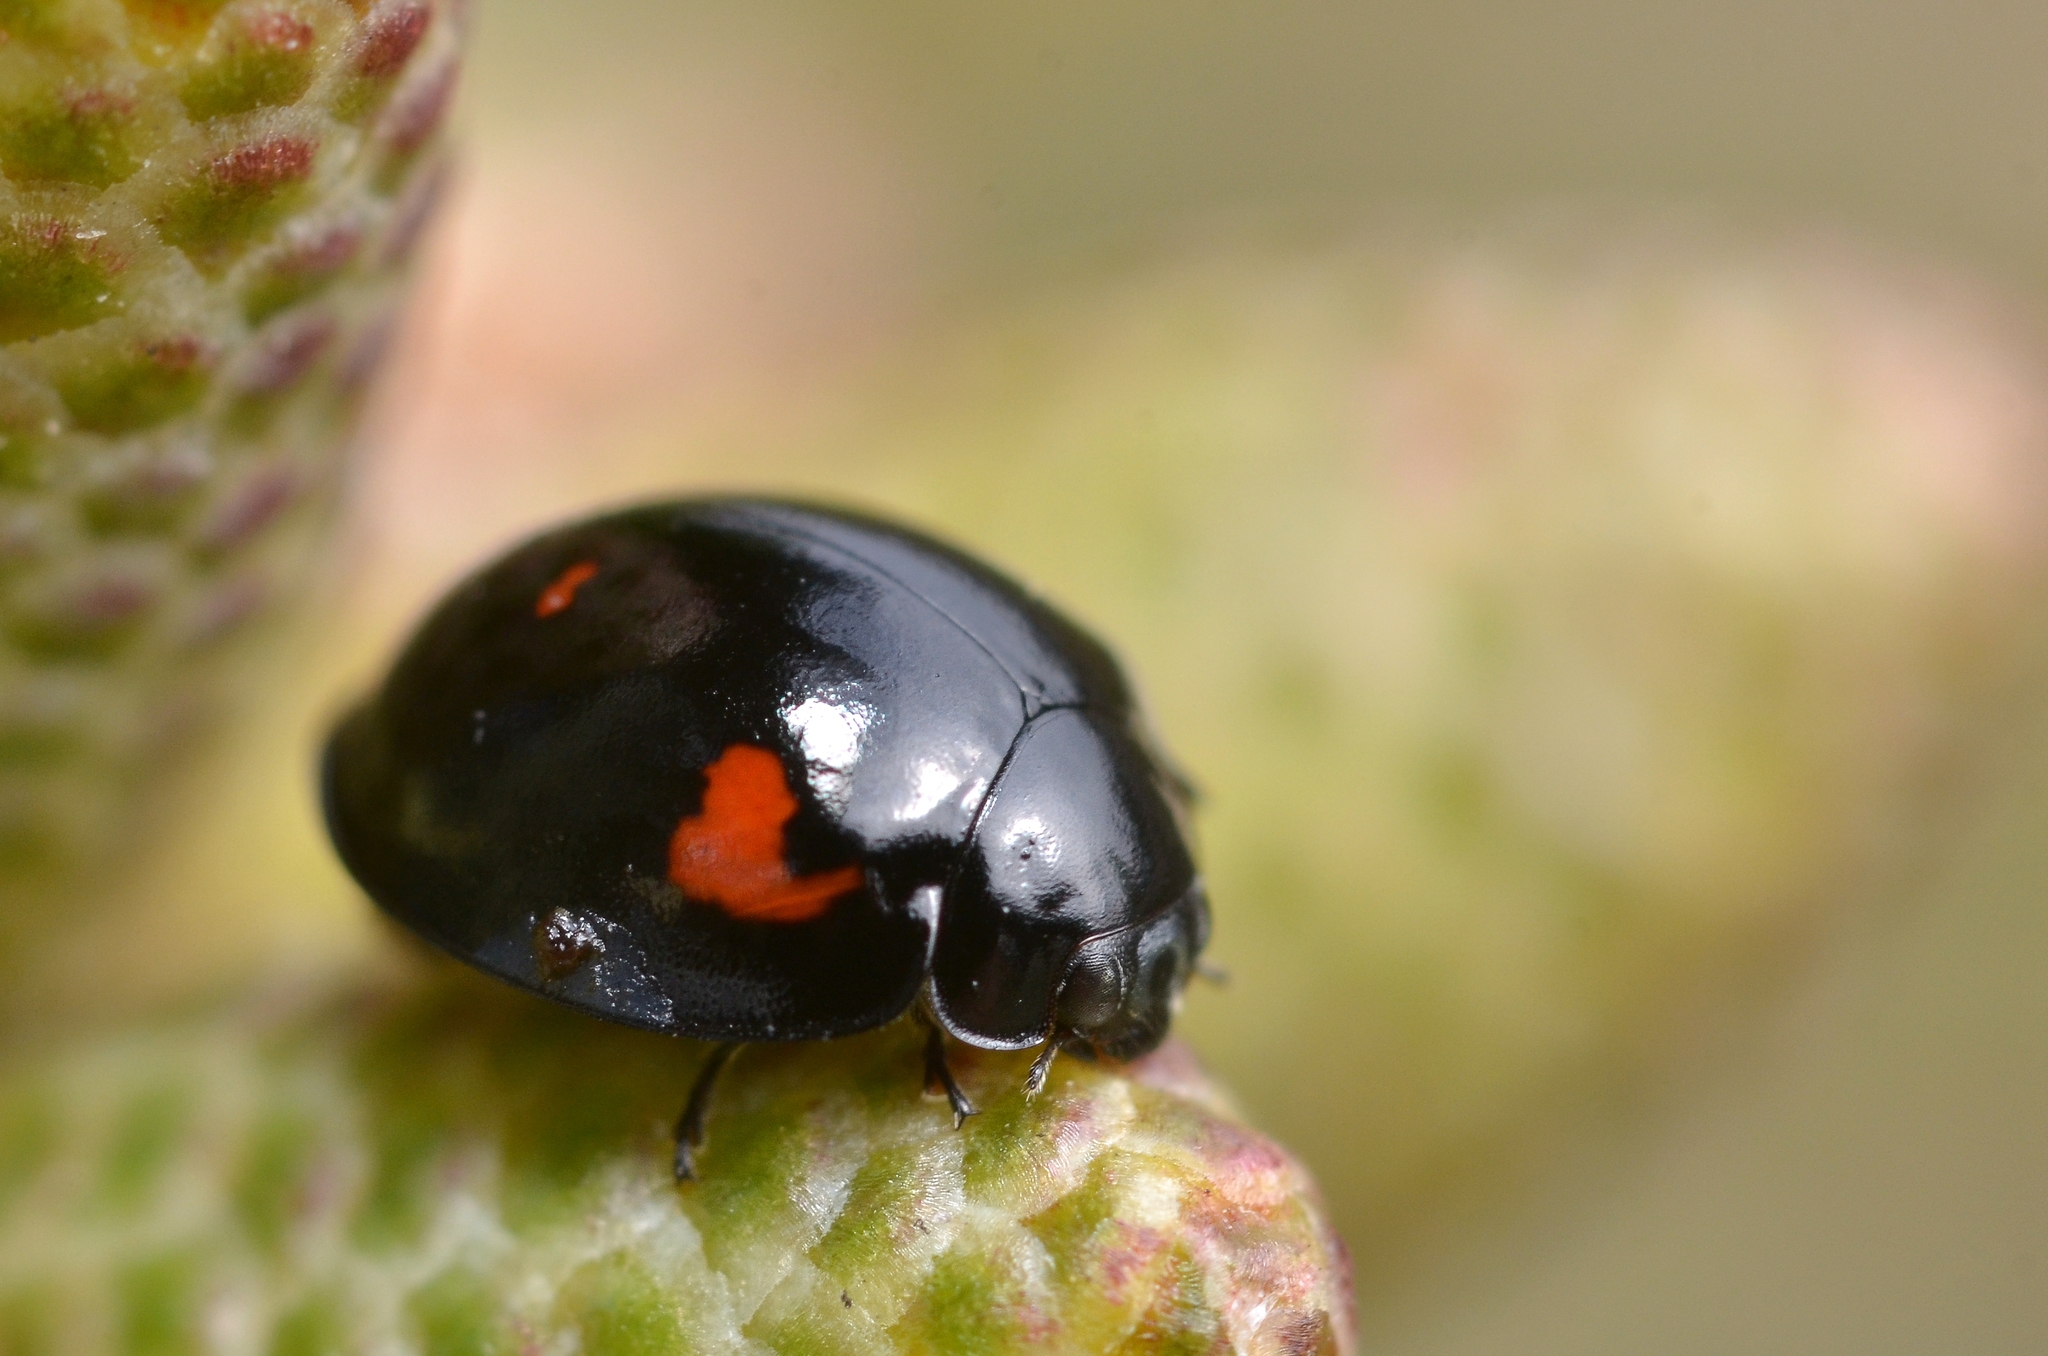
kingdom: Animalia
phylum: Arthropoda
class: Insecta
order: Coleoptera
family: Coccinellidae
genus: Brumus
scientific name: Brumus quadripustulatus
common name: Ladybird beetle
